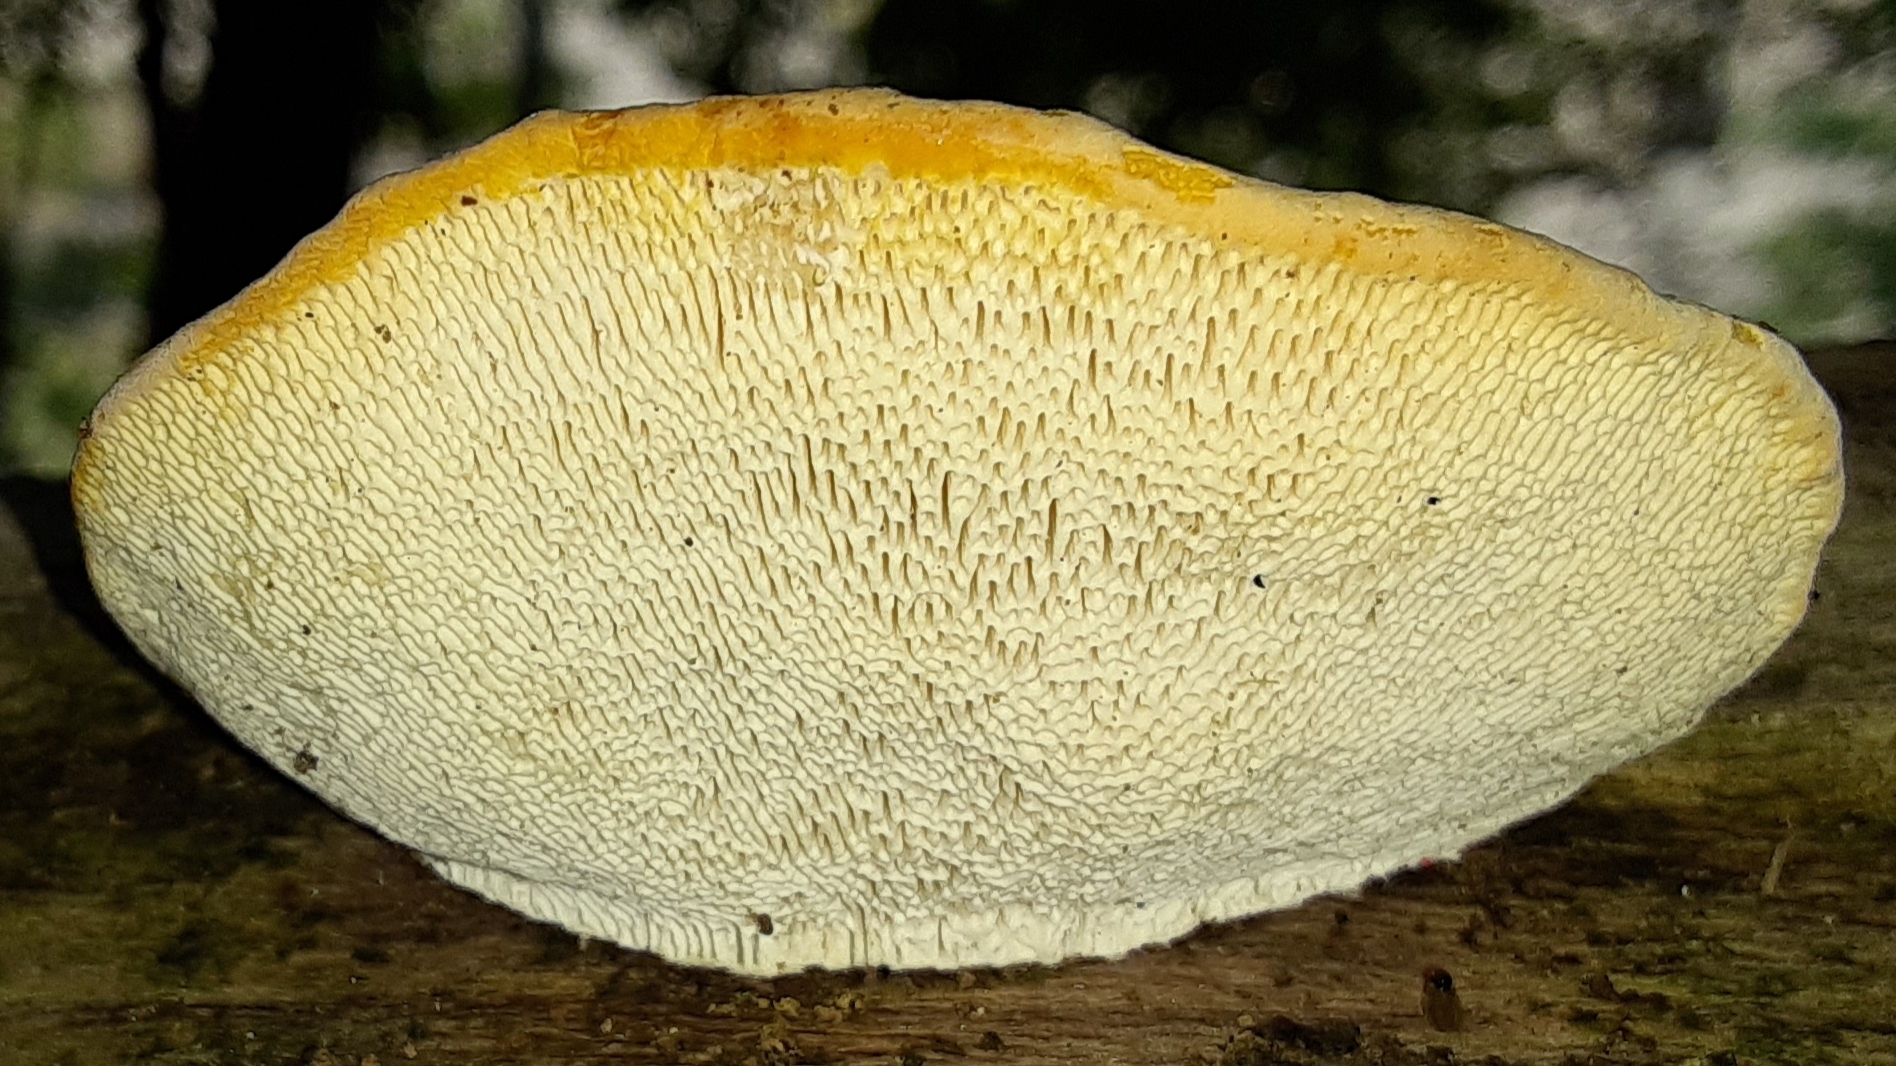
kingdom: Fungi
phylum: Basidiomycota
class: Agaricomycetes
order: Polyporales
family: Polyporaceae
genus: Trametes
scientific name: Trametes gibbosa
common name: Lumpy bracket
